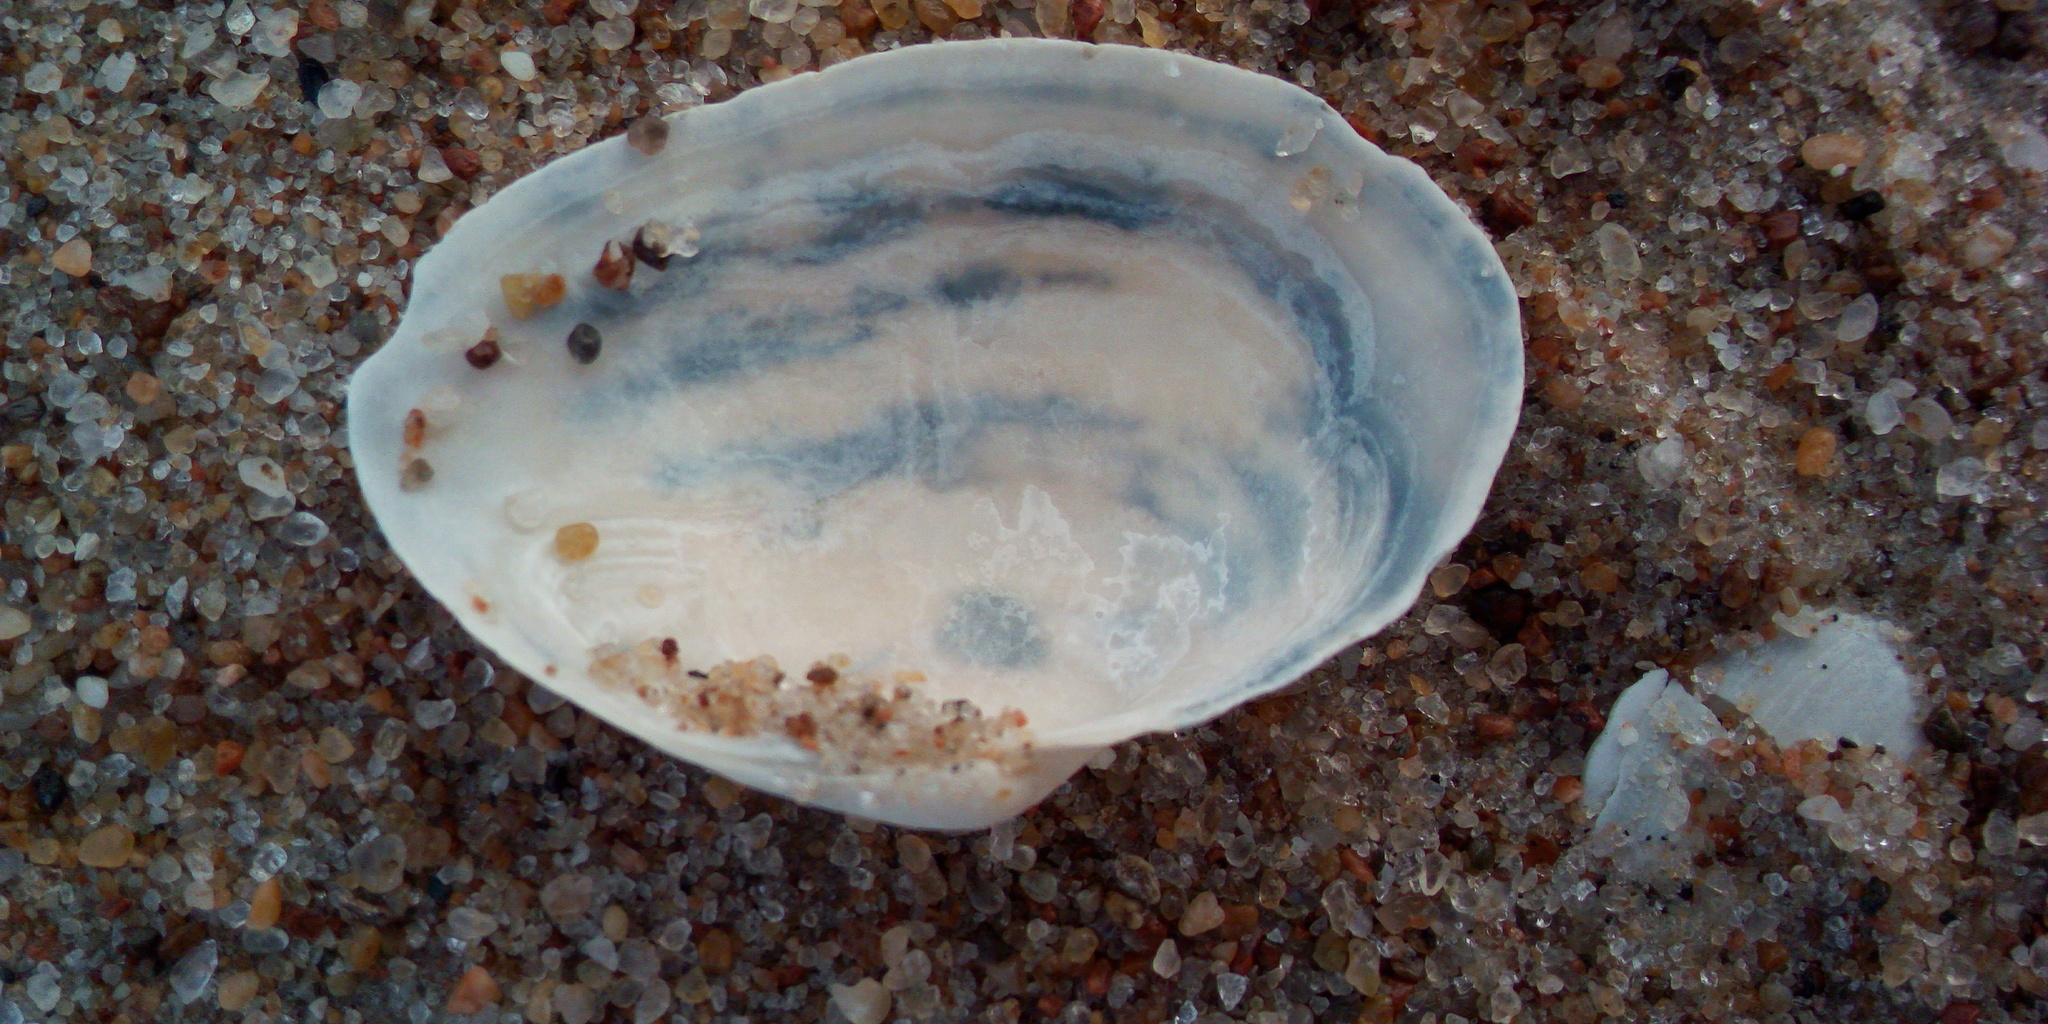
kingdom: Animalia
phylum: Mollusca
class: Bivalvia
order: Myida
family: Myidae
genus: Mya
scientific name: Mya arenaria
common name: Soft-shelled clam
